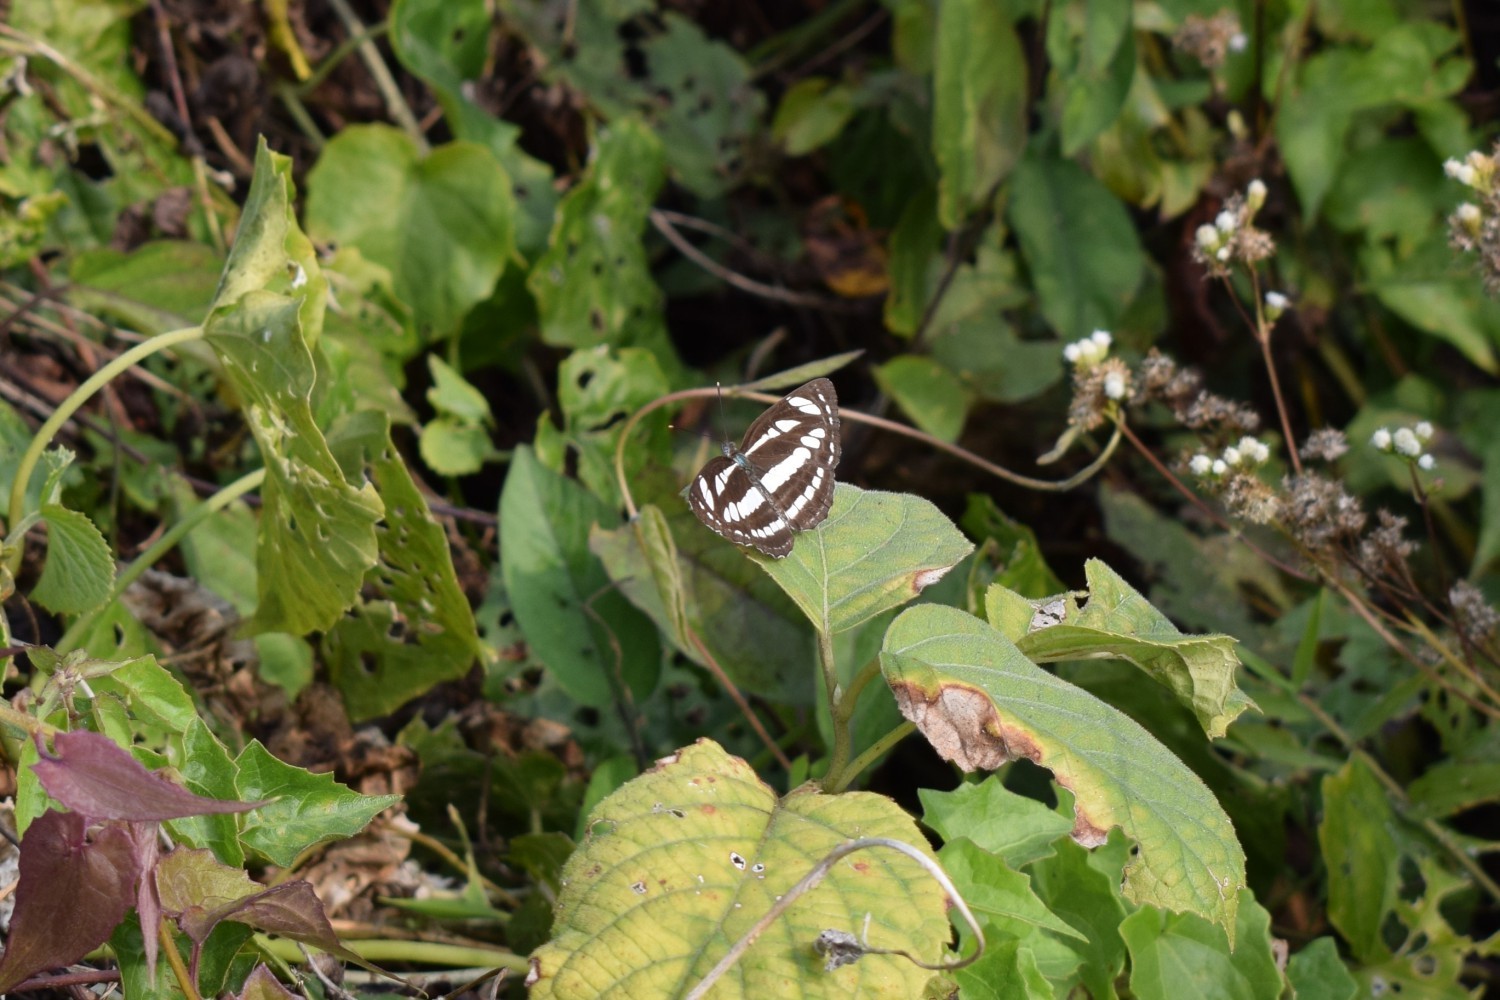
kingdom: Animalia
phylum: Arthropoda
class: Insecta
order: Lepidoptera
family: Nymphalidae
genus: Neptis
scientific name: Neptis hylas
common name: Common sailer
